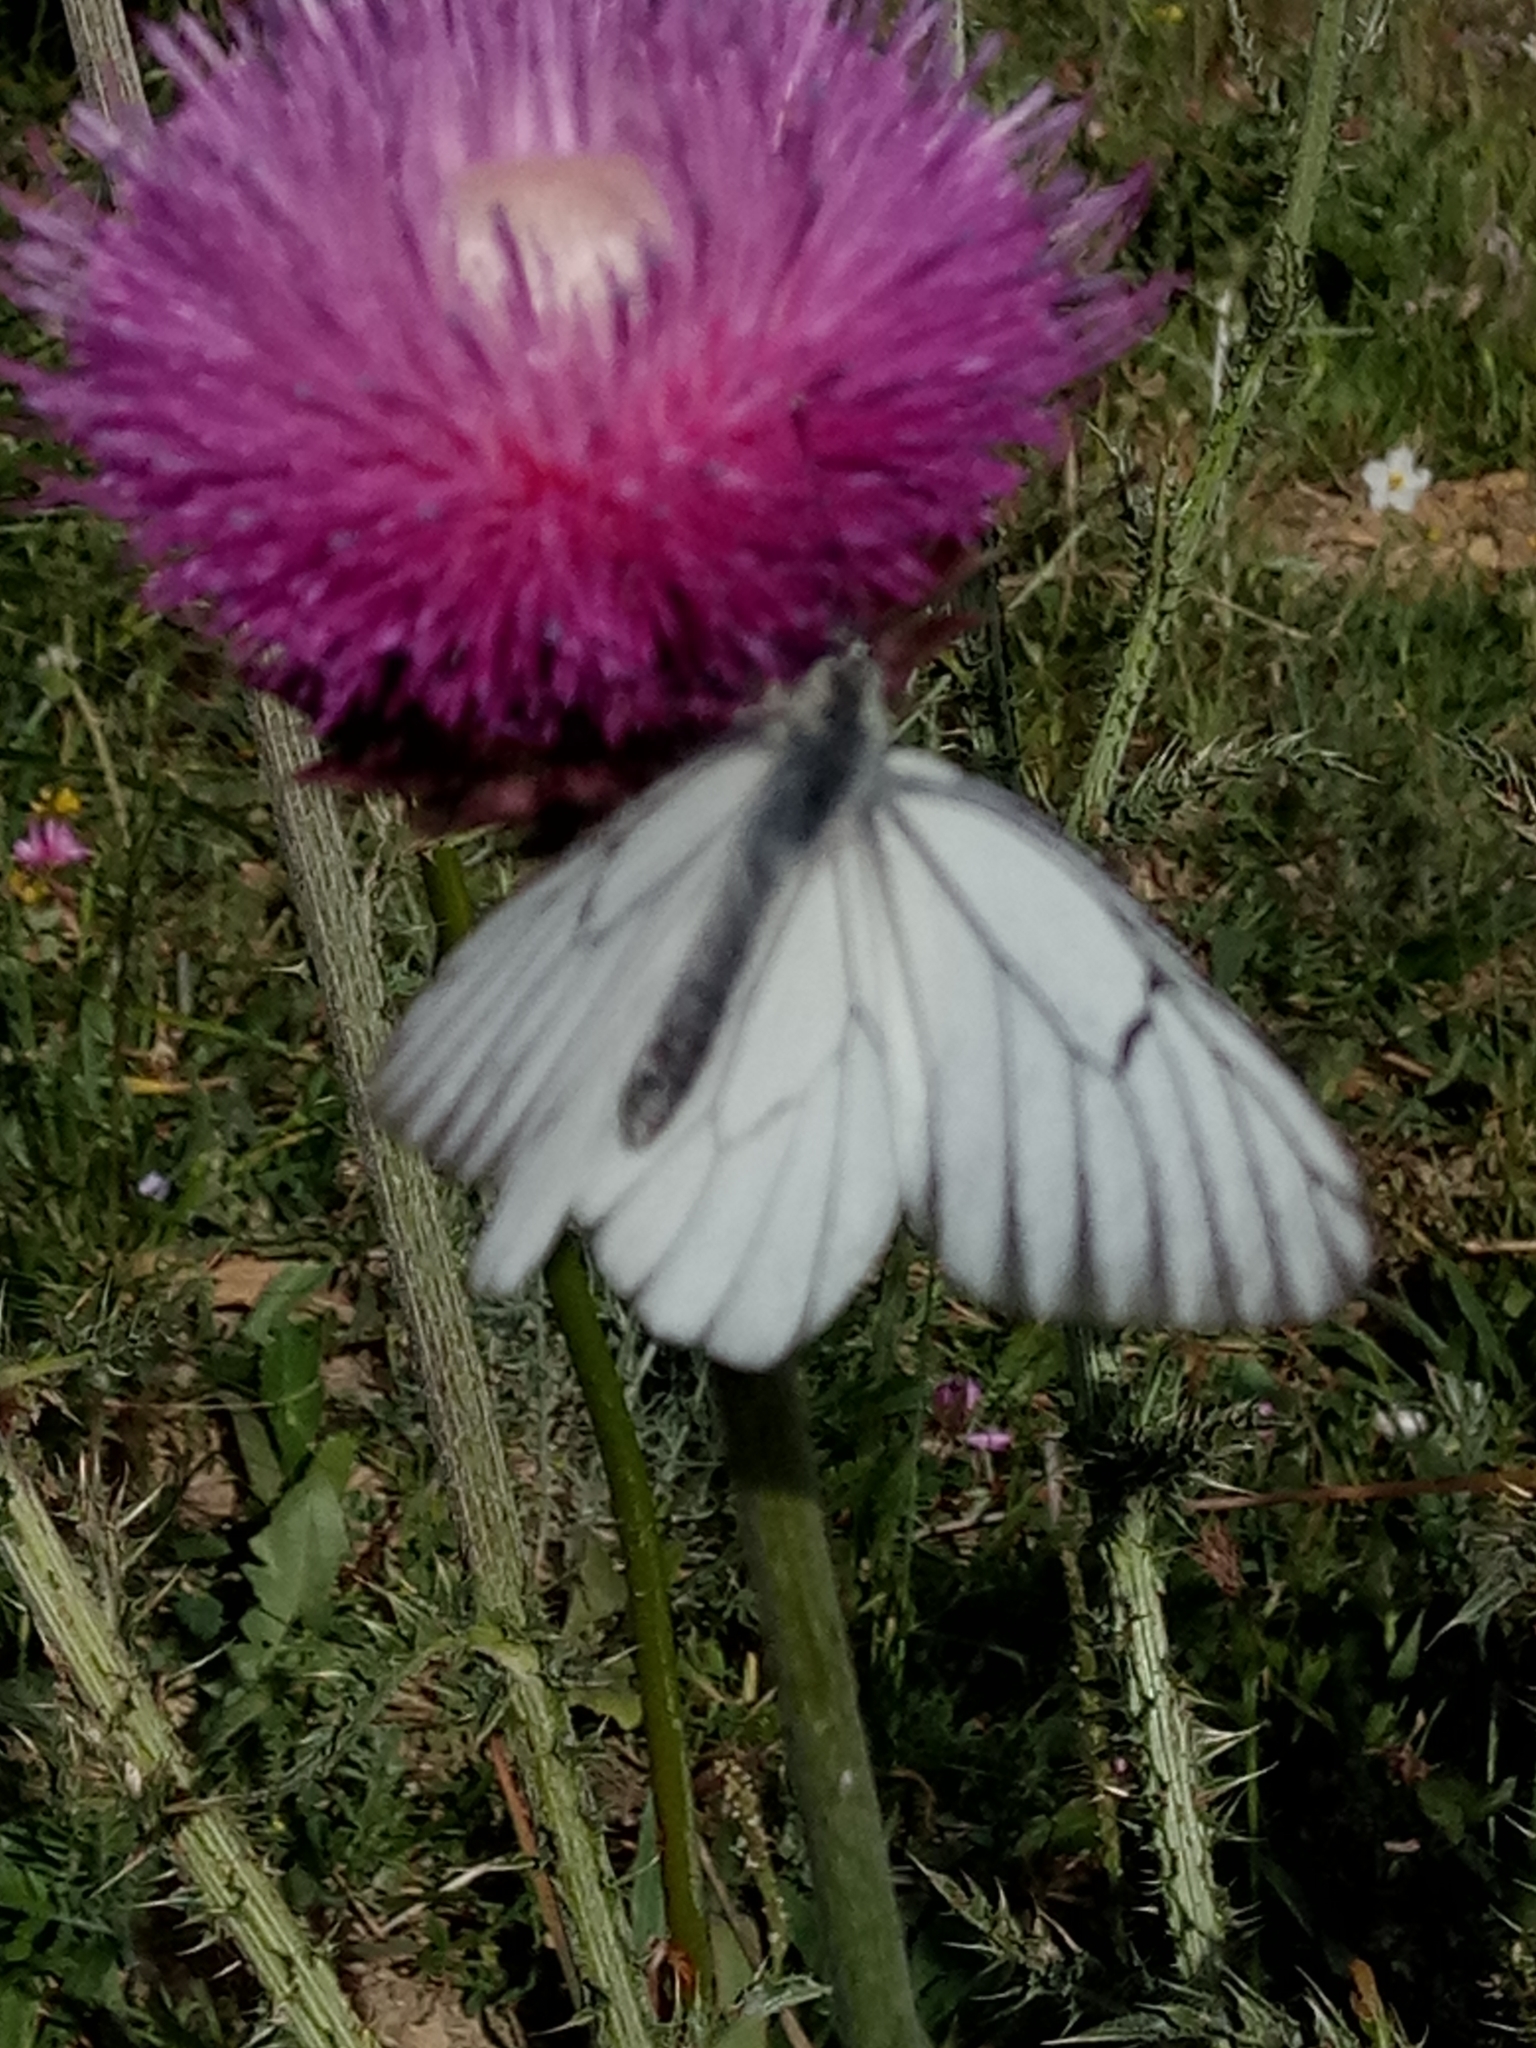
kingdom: Animalia
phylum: Arthropoda
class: Insecta
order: Lepidoptera
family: Pieridae
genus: Aporia
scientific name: Aporia crataegi
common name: Black-veined white
